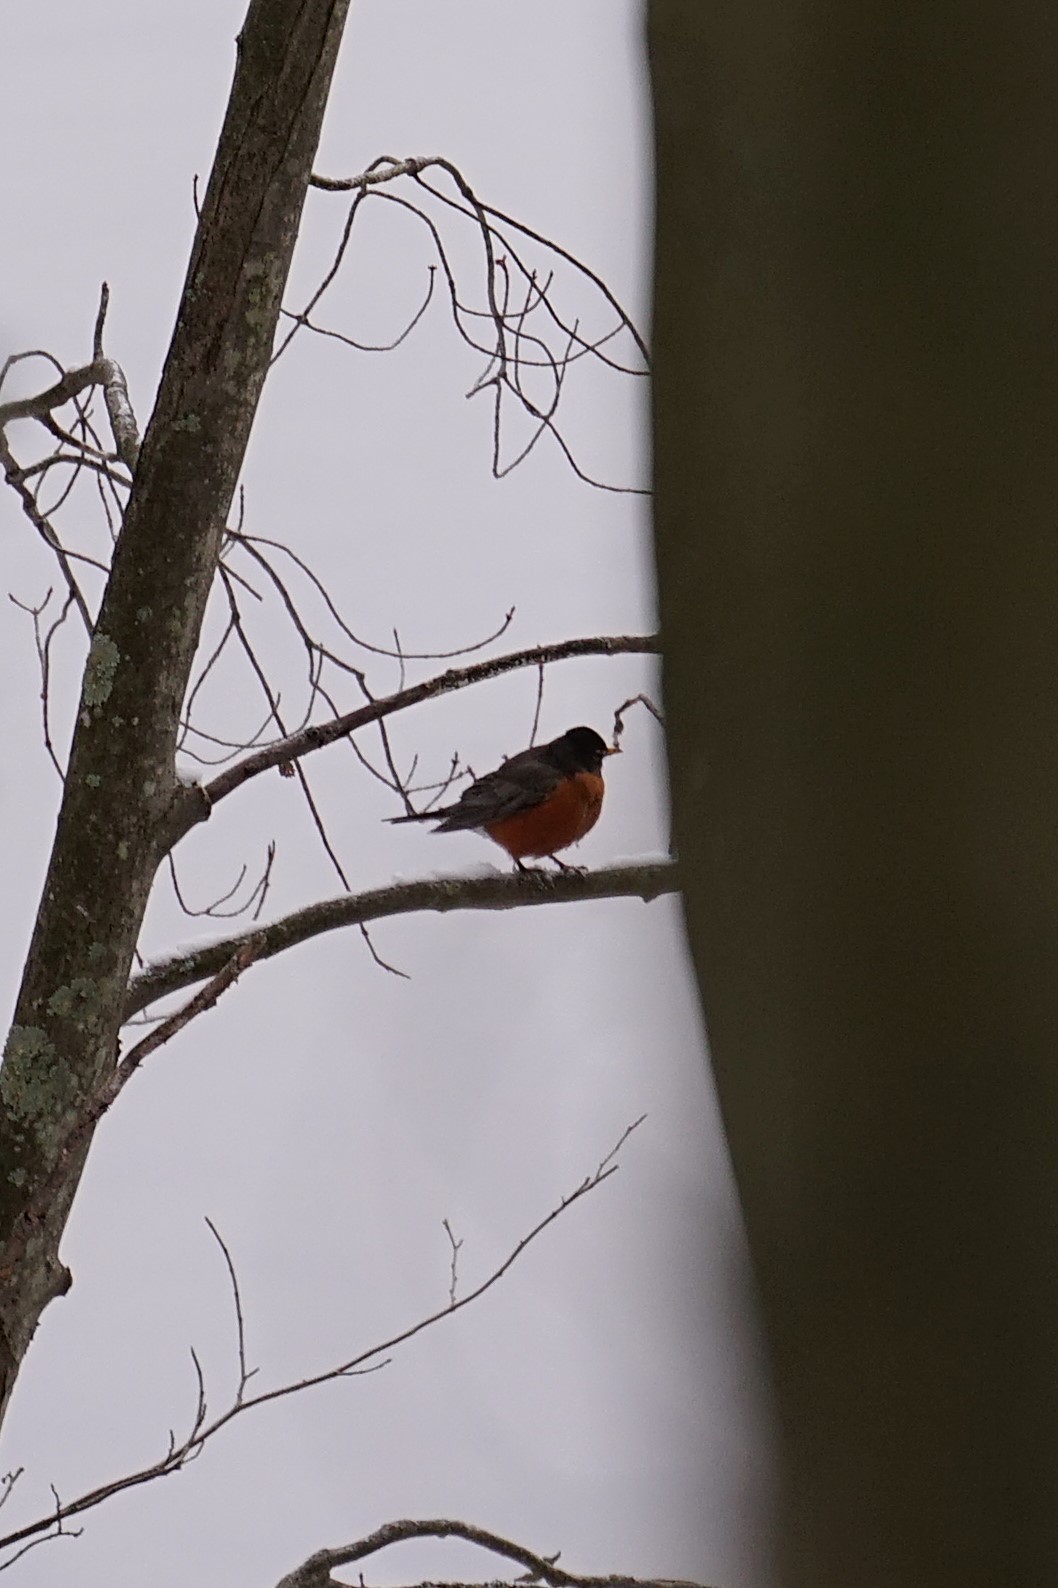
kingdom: Animalia
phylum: Chordata
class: Aves
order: Passeriformes
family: Turdidae
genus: Turdus
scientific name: Turdus migratorius
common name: American robin
